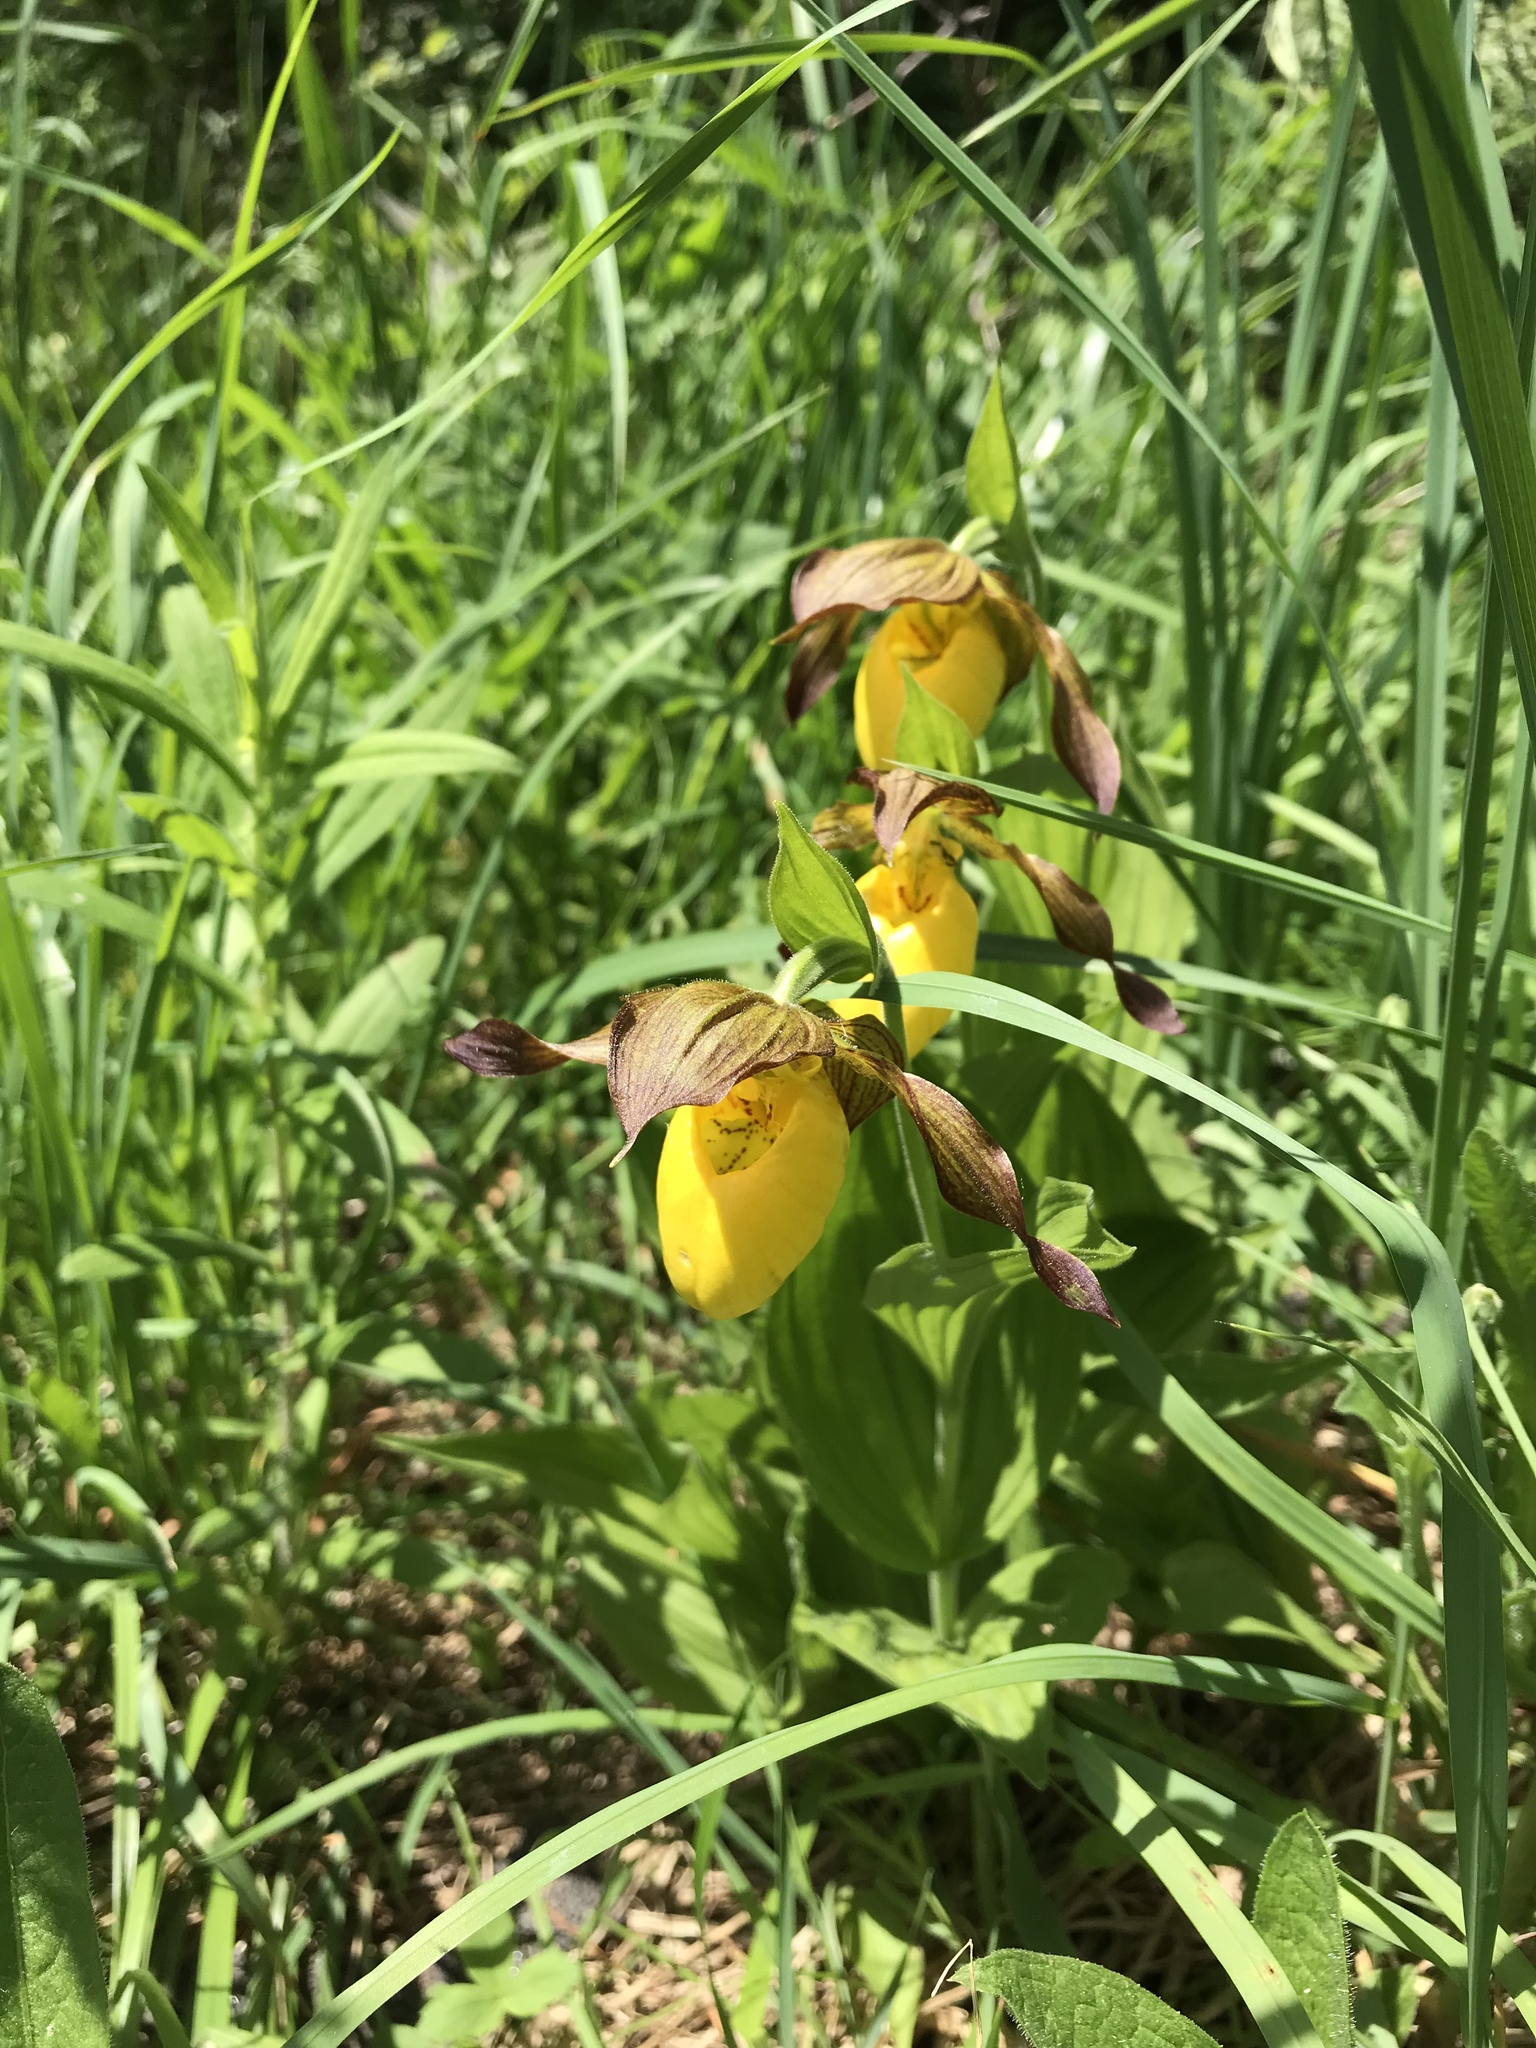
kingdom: Plantae
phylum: Tracheophyta
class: Liliopsida
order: Asparagales
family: Orchidaceae
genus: Cypripedium
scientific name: Cypripedium parviflorum
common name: American yellow lady's-slipper
